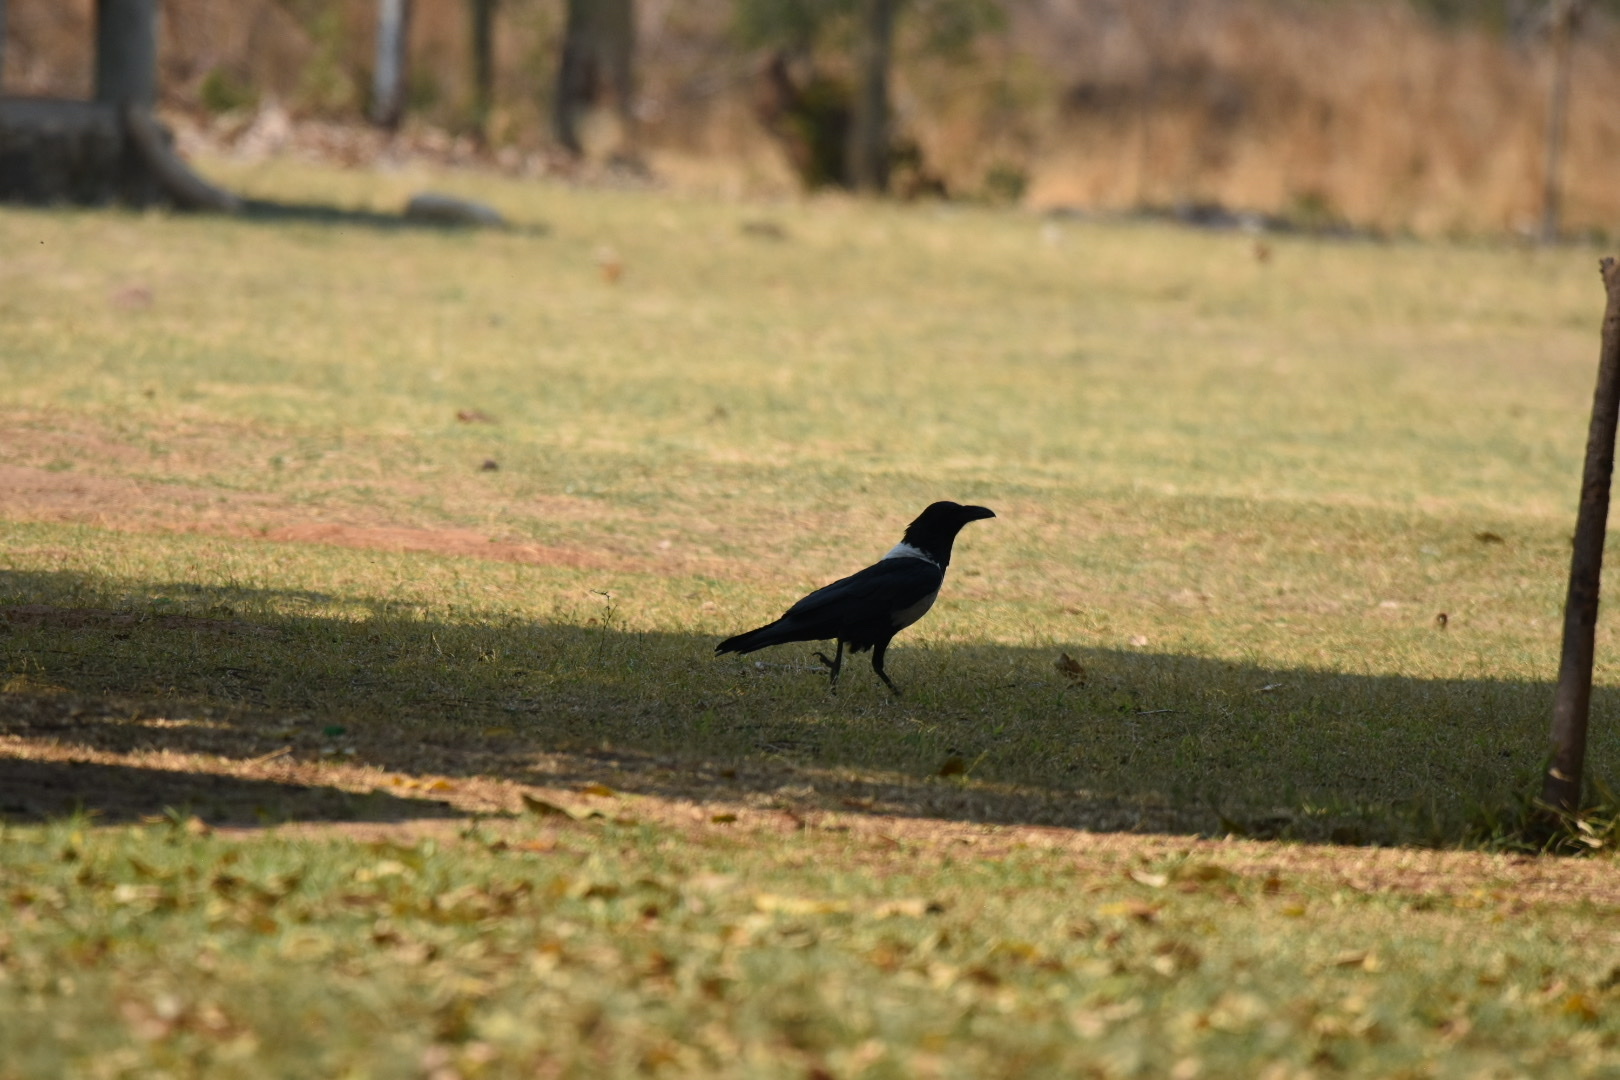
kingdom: Animalia
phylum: Chordata
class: Aves
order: Passeriformes
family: Corvidae
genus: Corvus
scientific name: Corvus albus
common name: Pied crow
